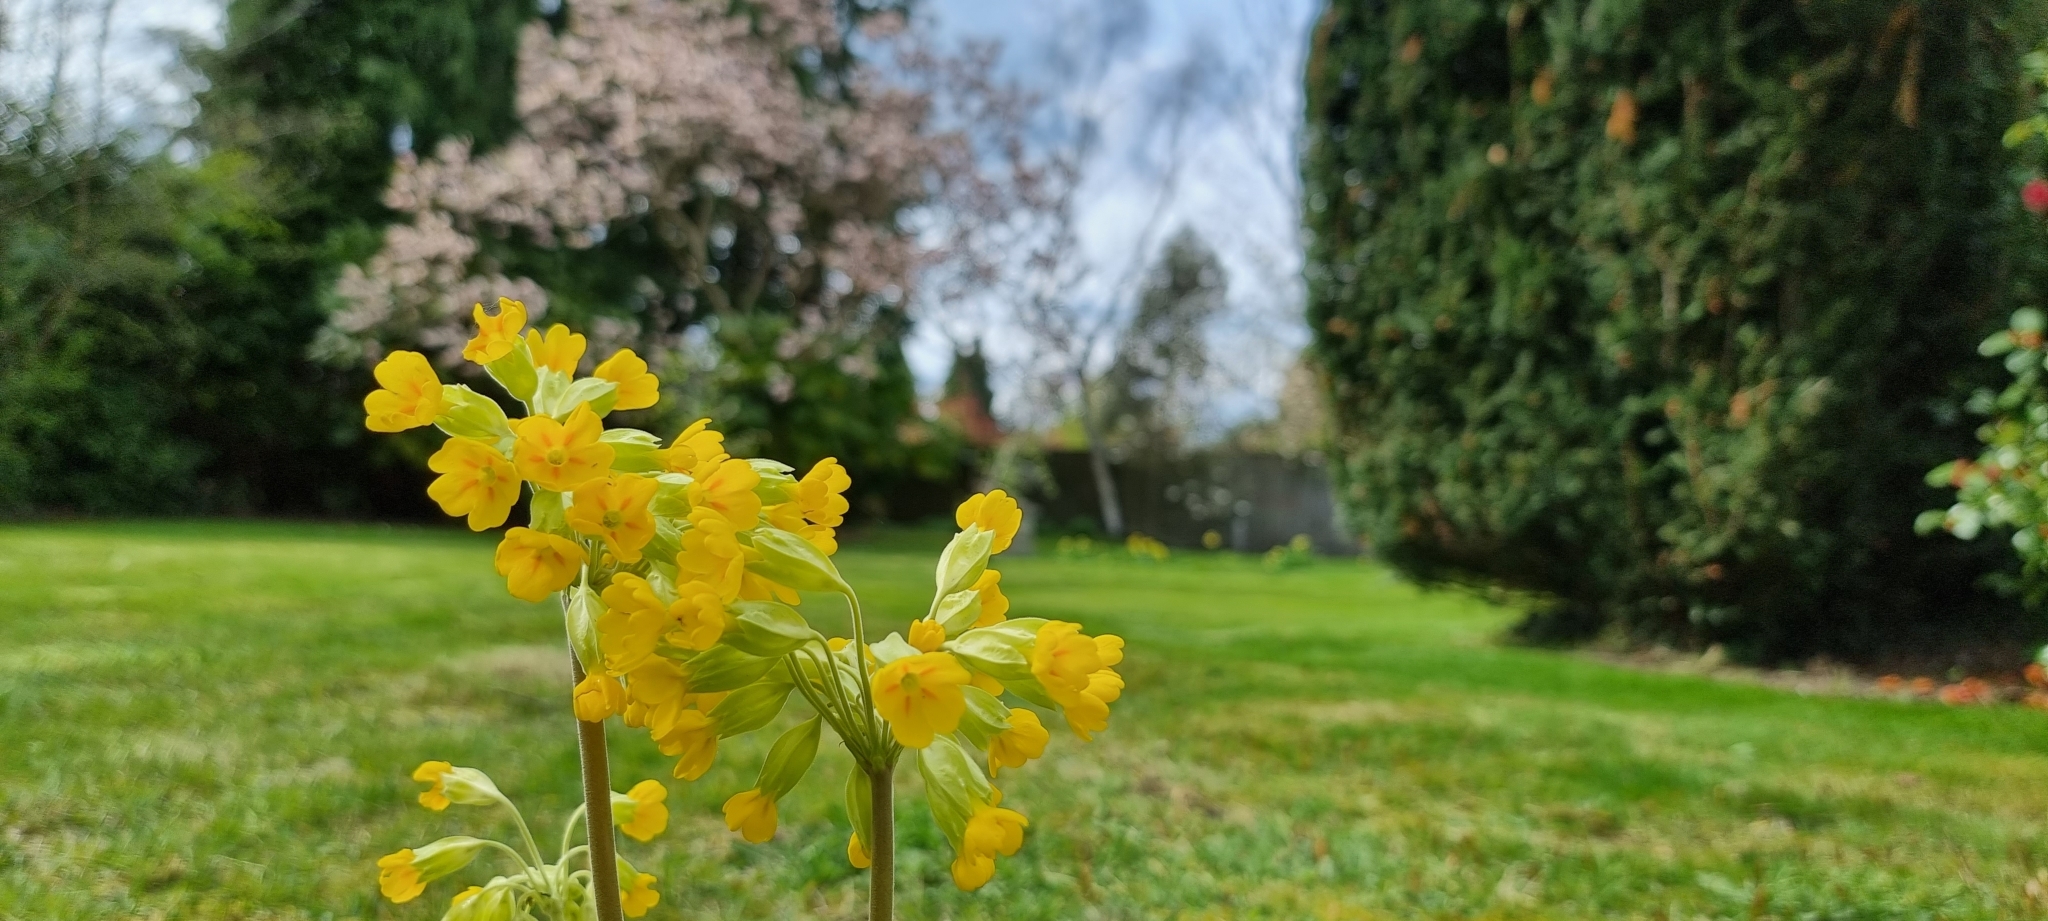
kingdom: Plantae
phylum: Tracheophyta
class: Magnoliopsida
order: Ericales
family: Primulaceae
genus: Primula
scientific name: Primula veris
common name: Cowslip
